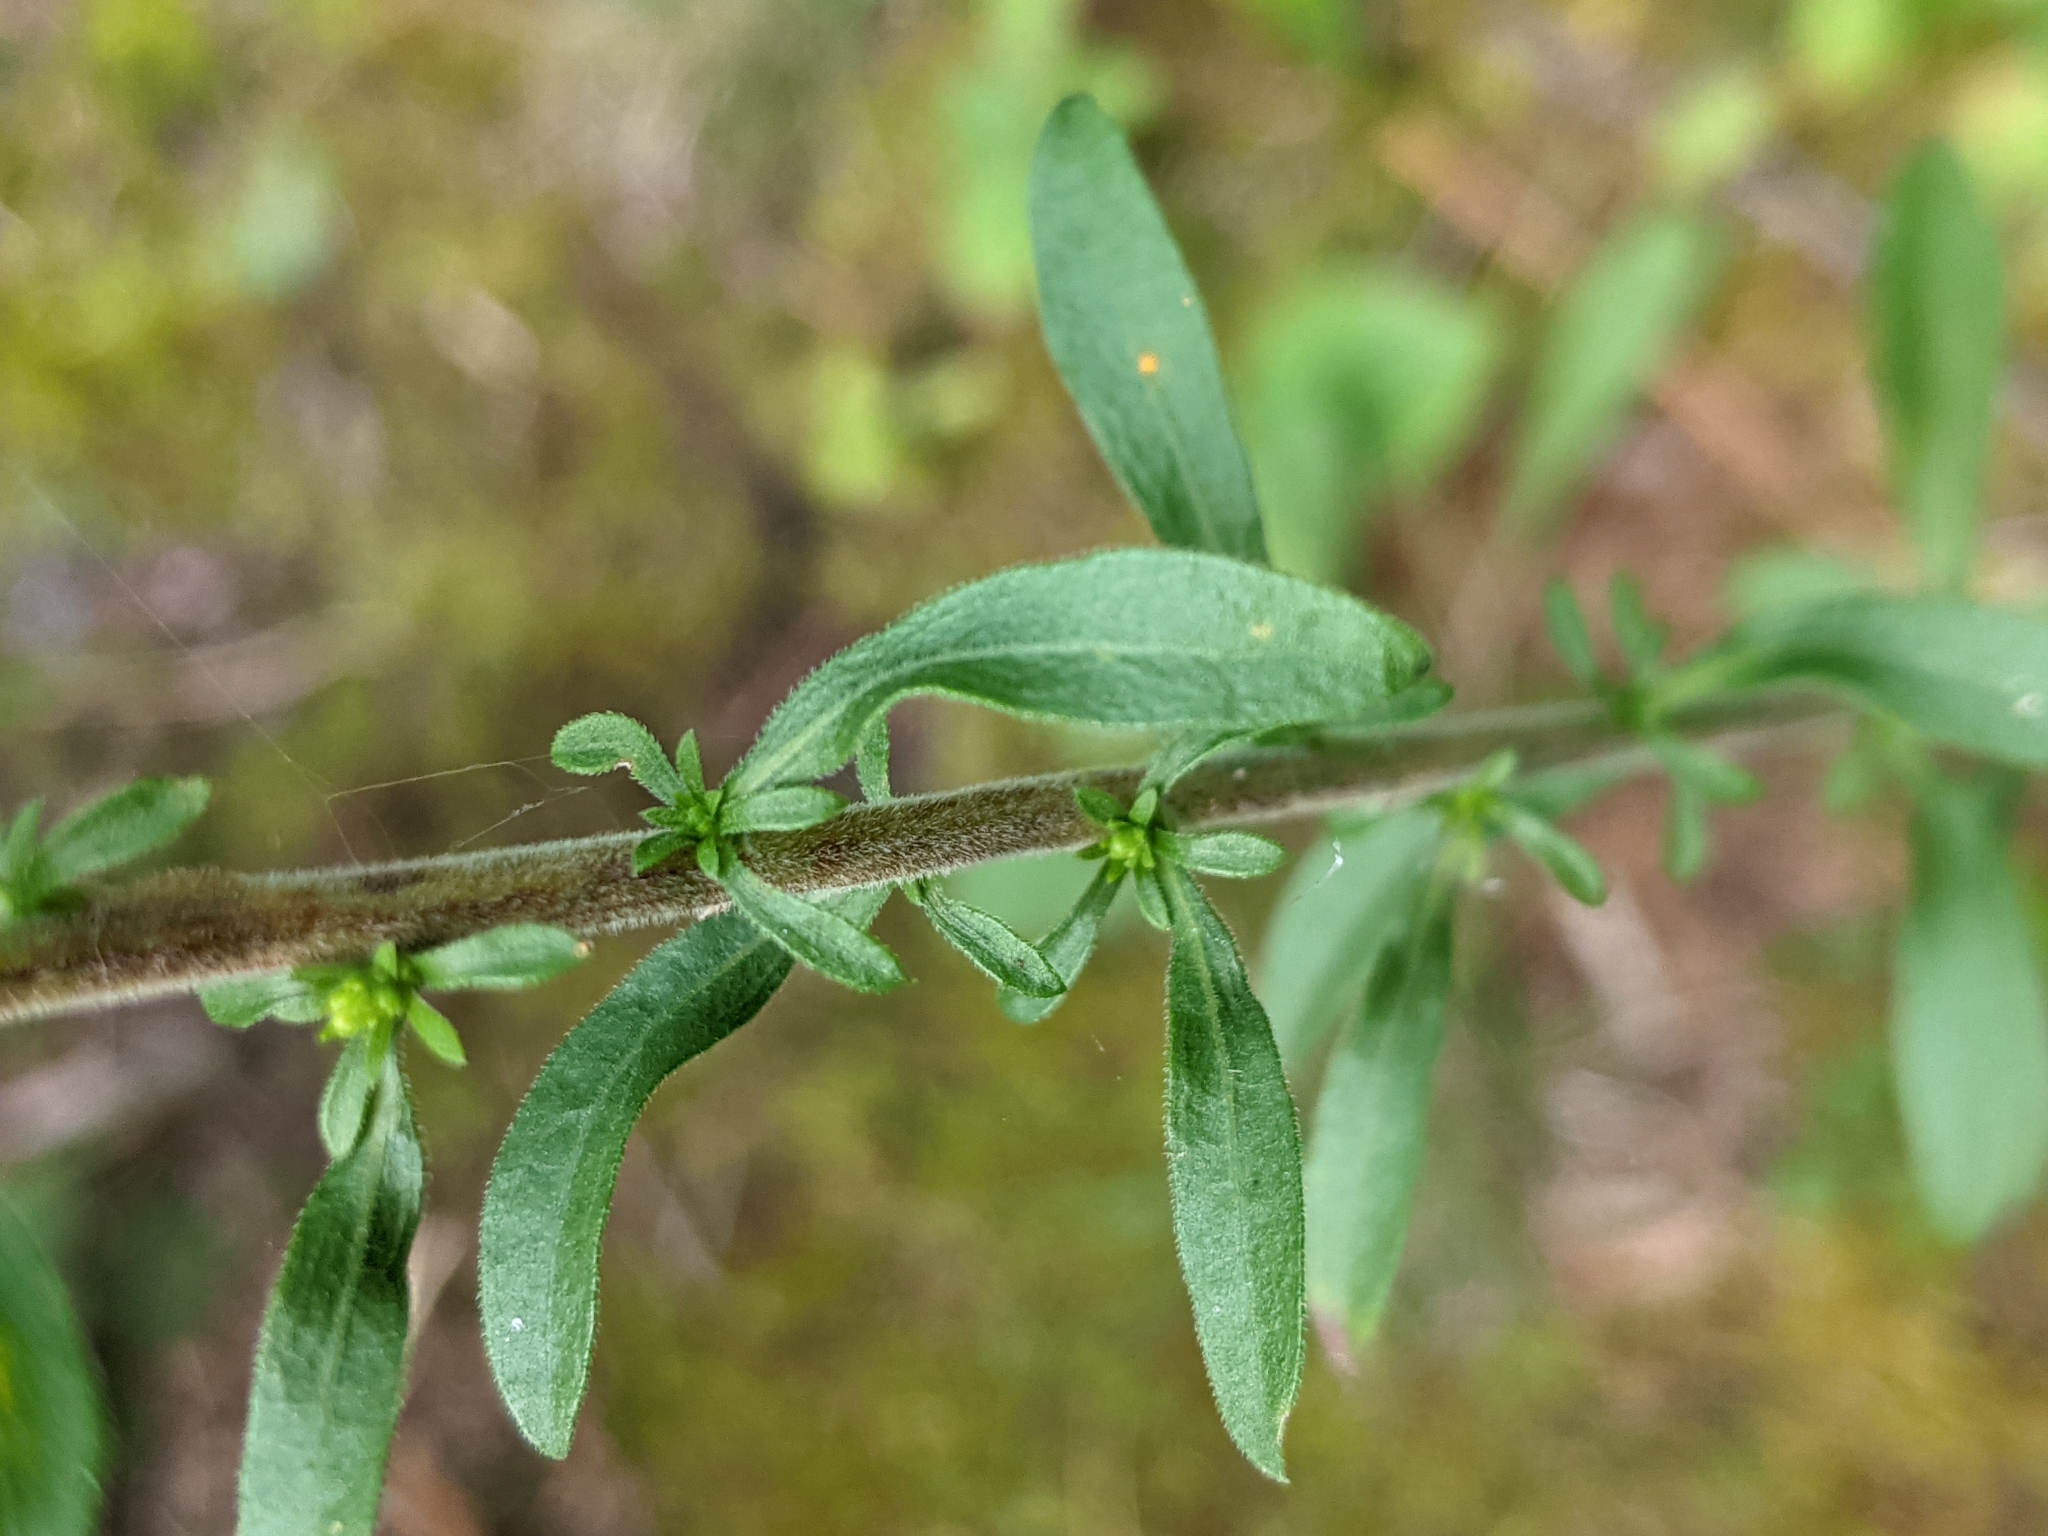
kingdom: Plantae
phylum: Tracheophyta
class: Magnoliopsida
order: Asterales
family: Asteraceae
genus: Solidago
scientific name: Solidago nemoralis
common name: Grey goldenrod
